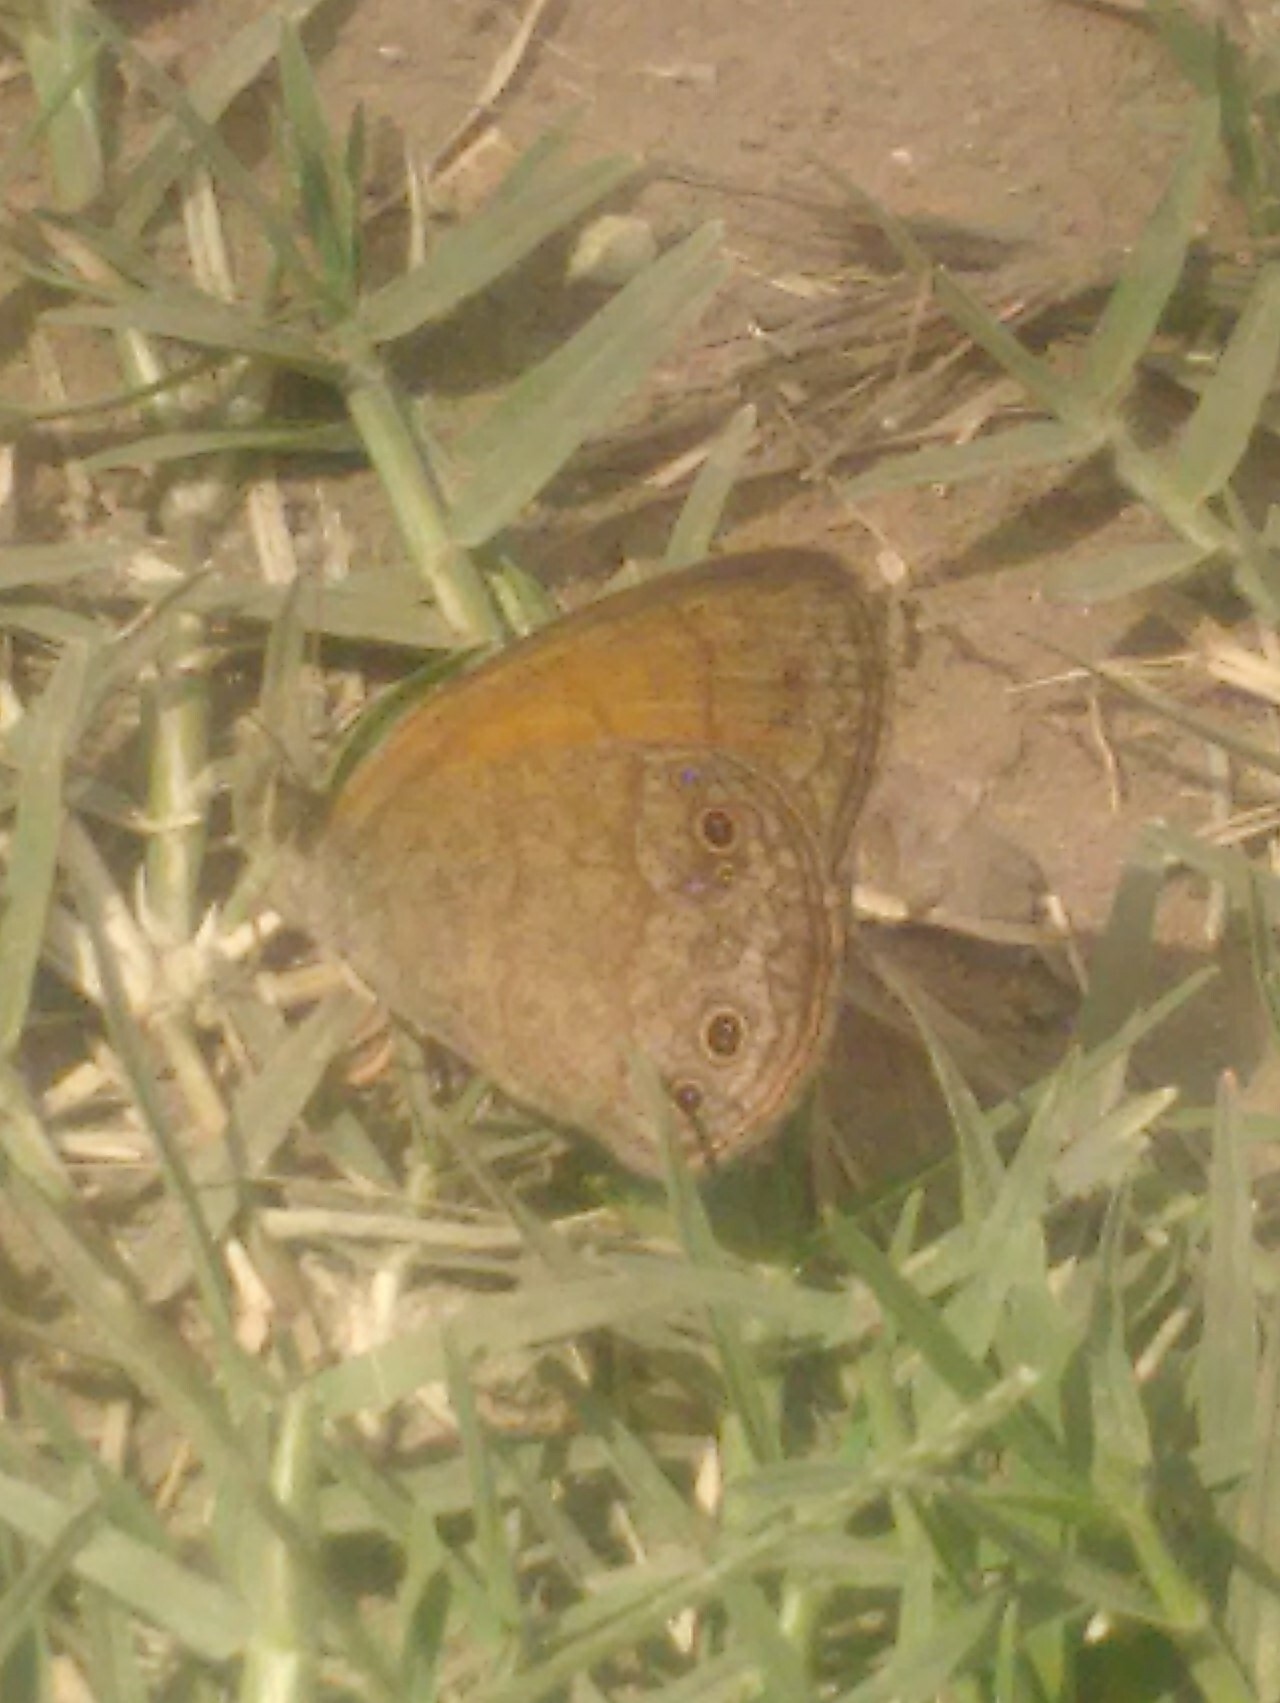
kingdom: Animalia
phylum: Arthropoda
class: Insecta
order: Lepidoptera
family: Nymphalidae
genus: Yphthimoides
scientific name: Yphthimoides celmis
